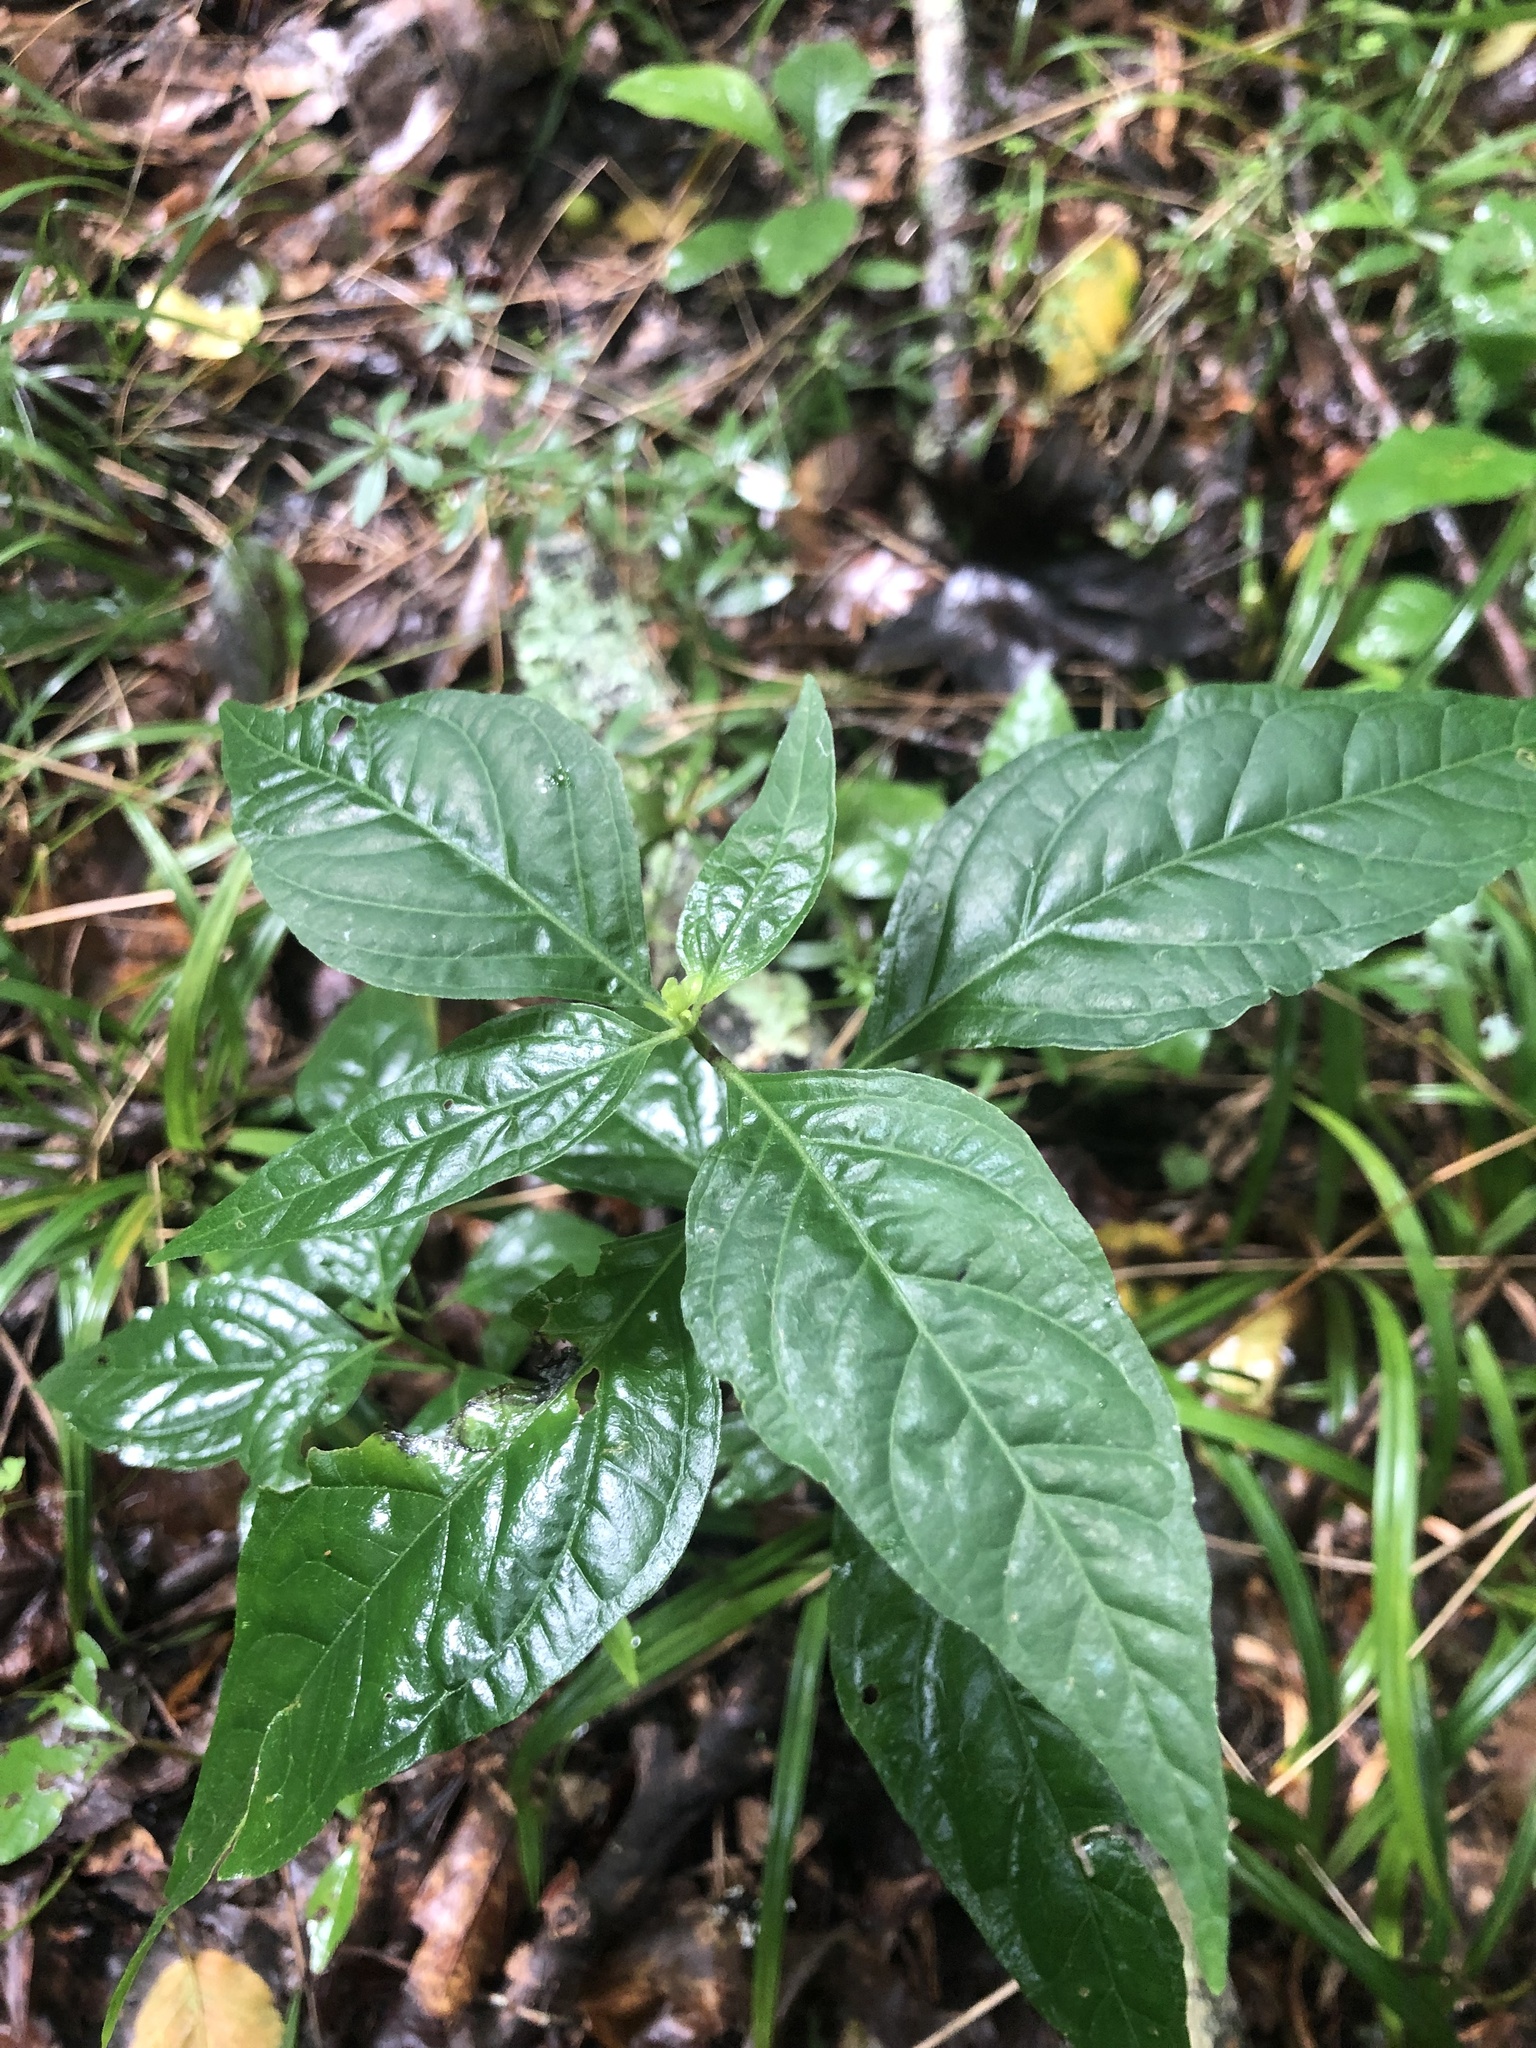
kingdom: Plantae
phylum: Tracheophyta
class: Magnoliopsida
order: Lamiales
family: Acanthaceae
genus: Yeatesia
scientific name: Yeatesia viridiflora
